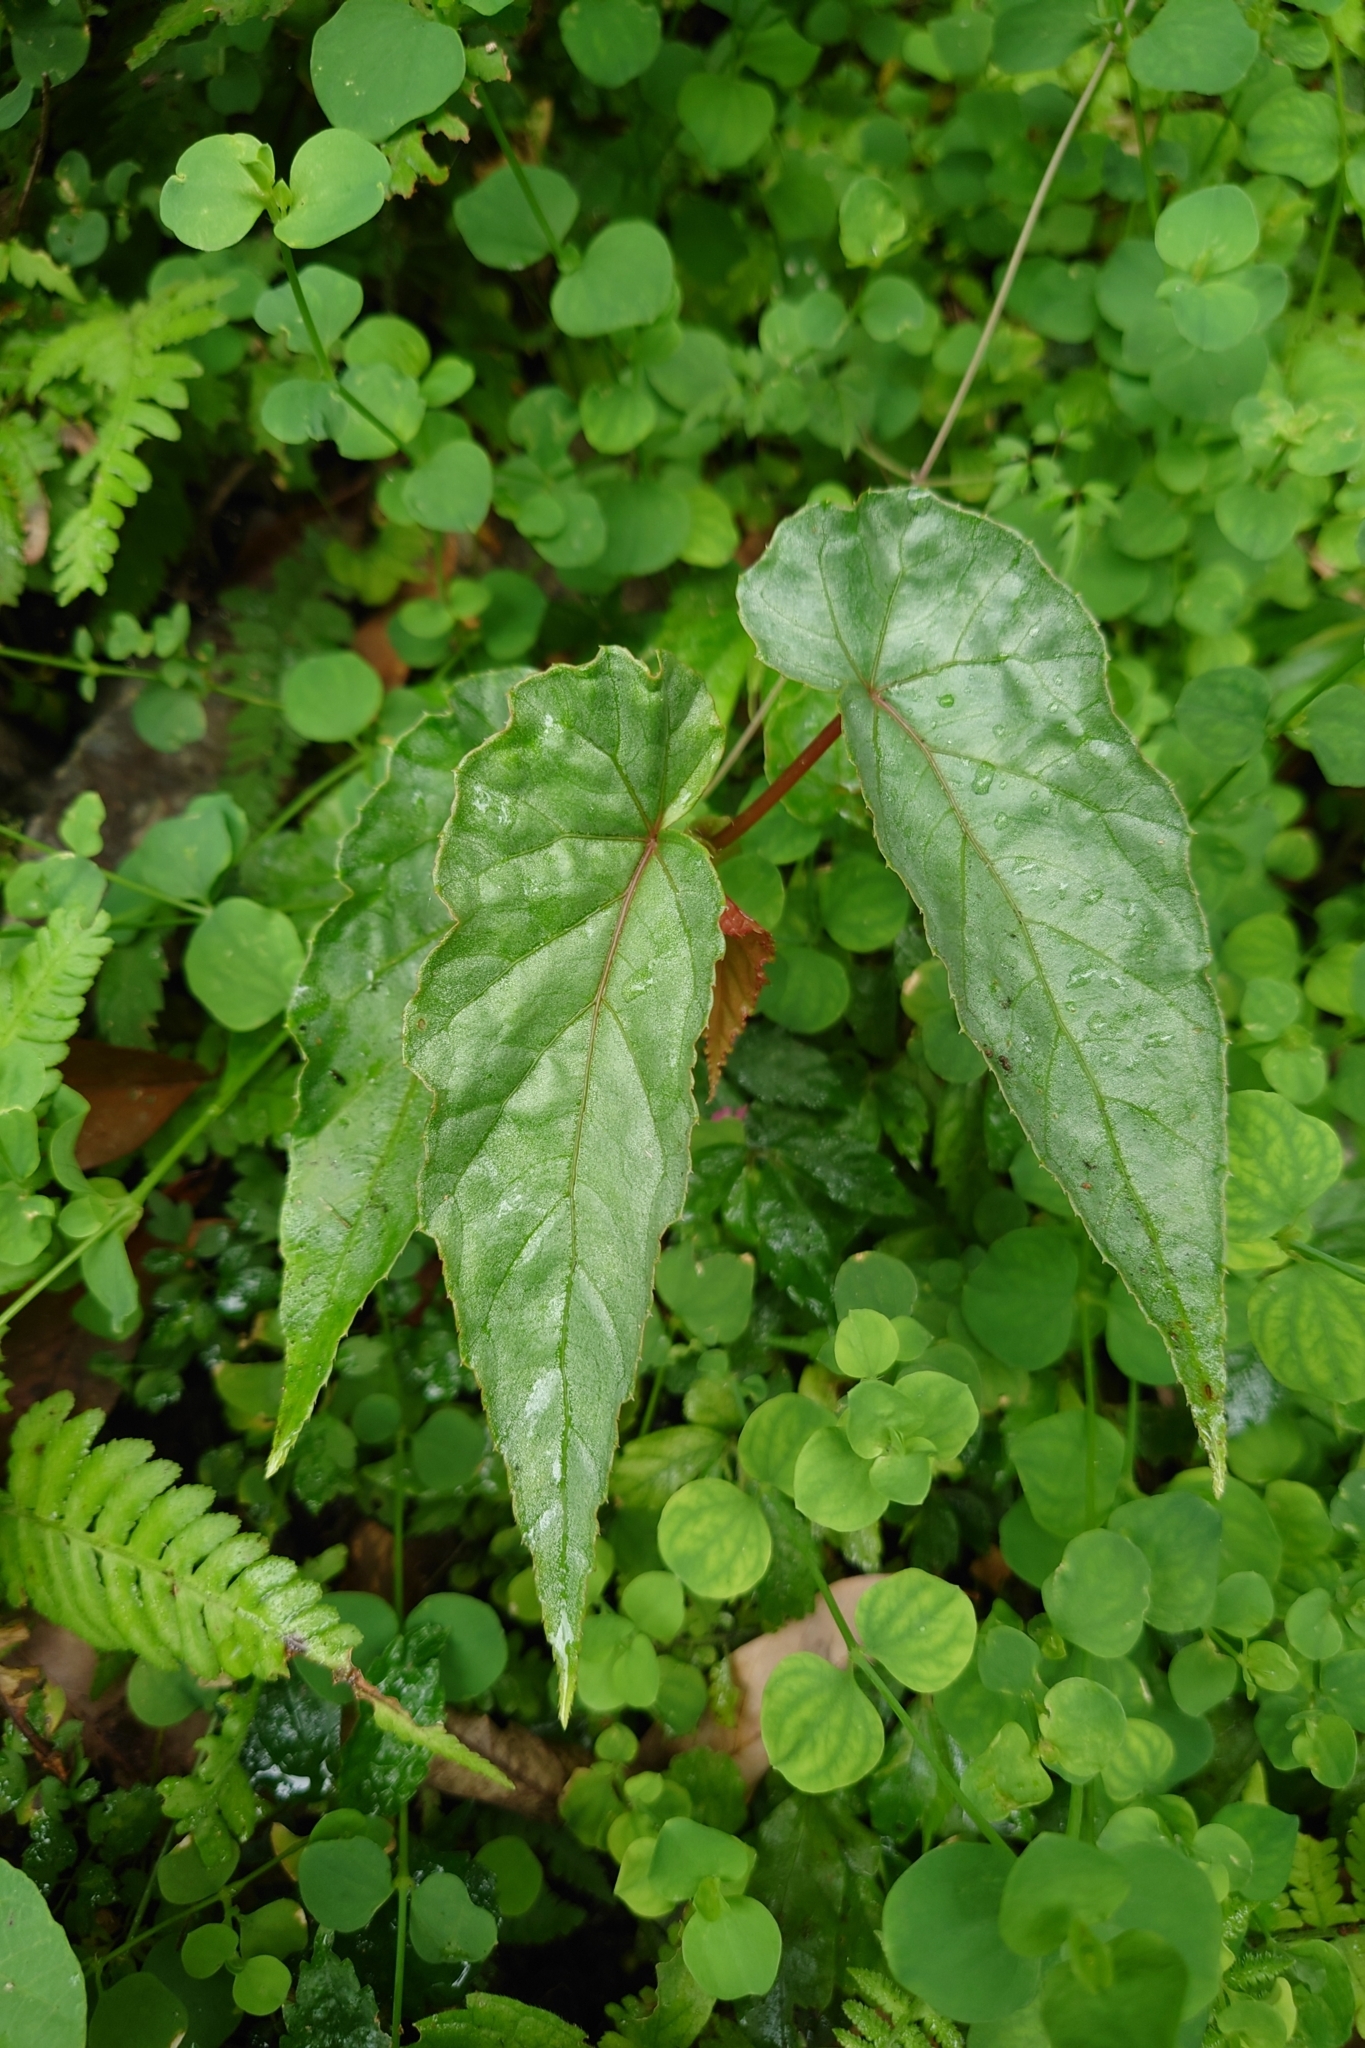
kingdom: Plantae
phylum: Tracheophyta
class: Magnoliopsida
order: Cucurbitales
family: Begoniaceae
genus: Begonia
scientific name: Begonia longifolia
